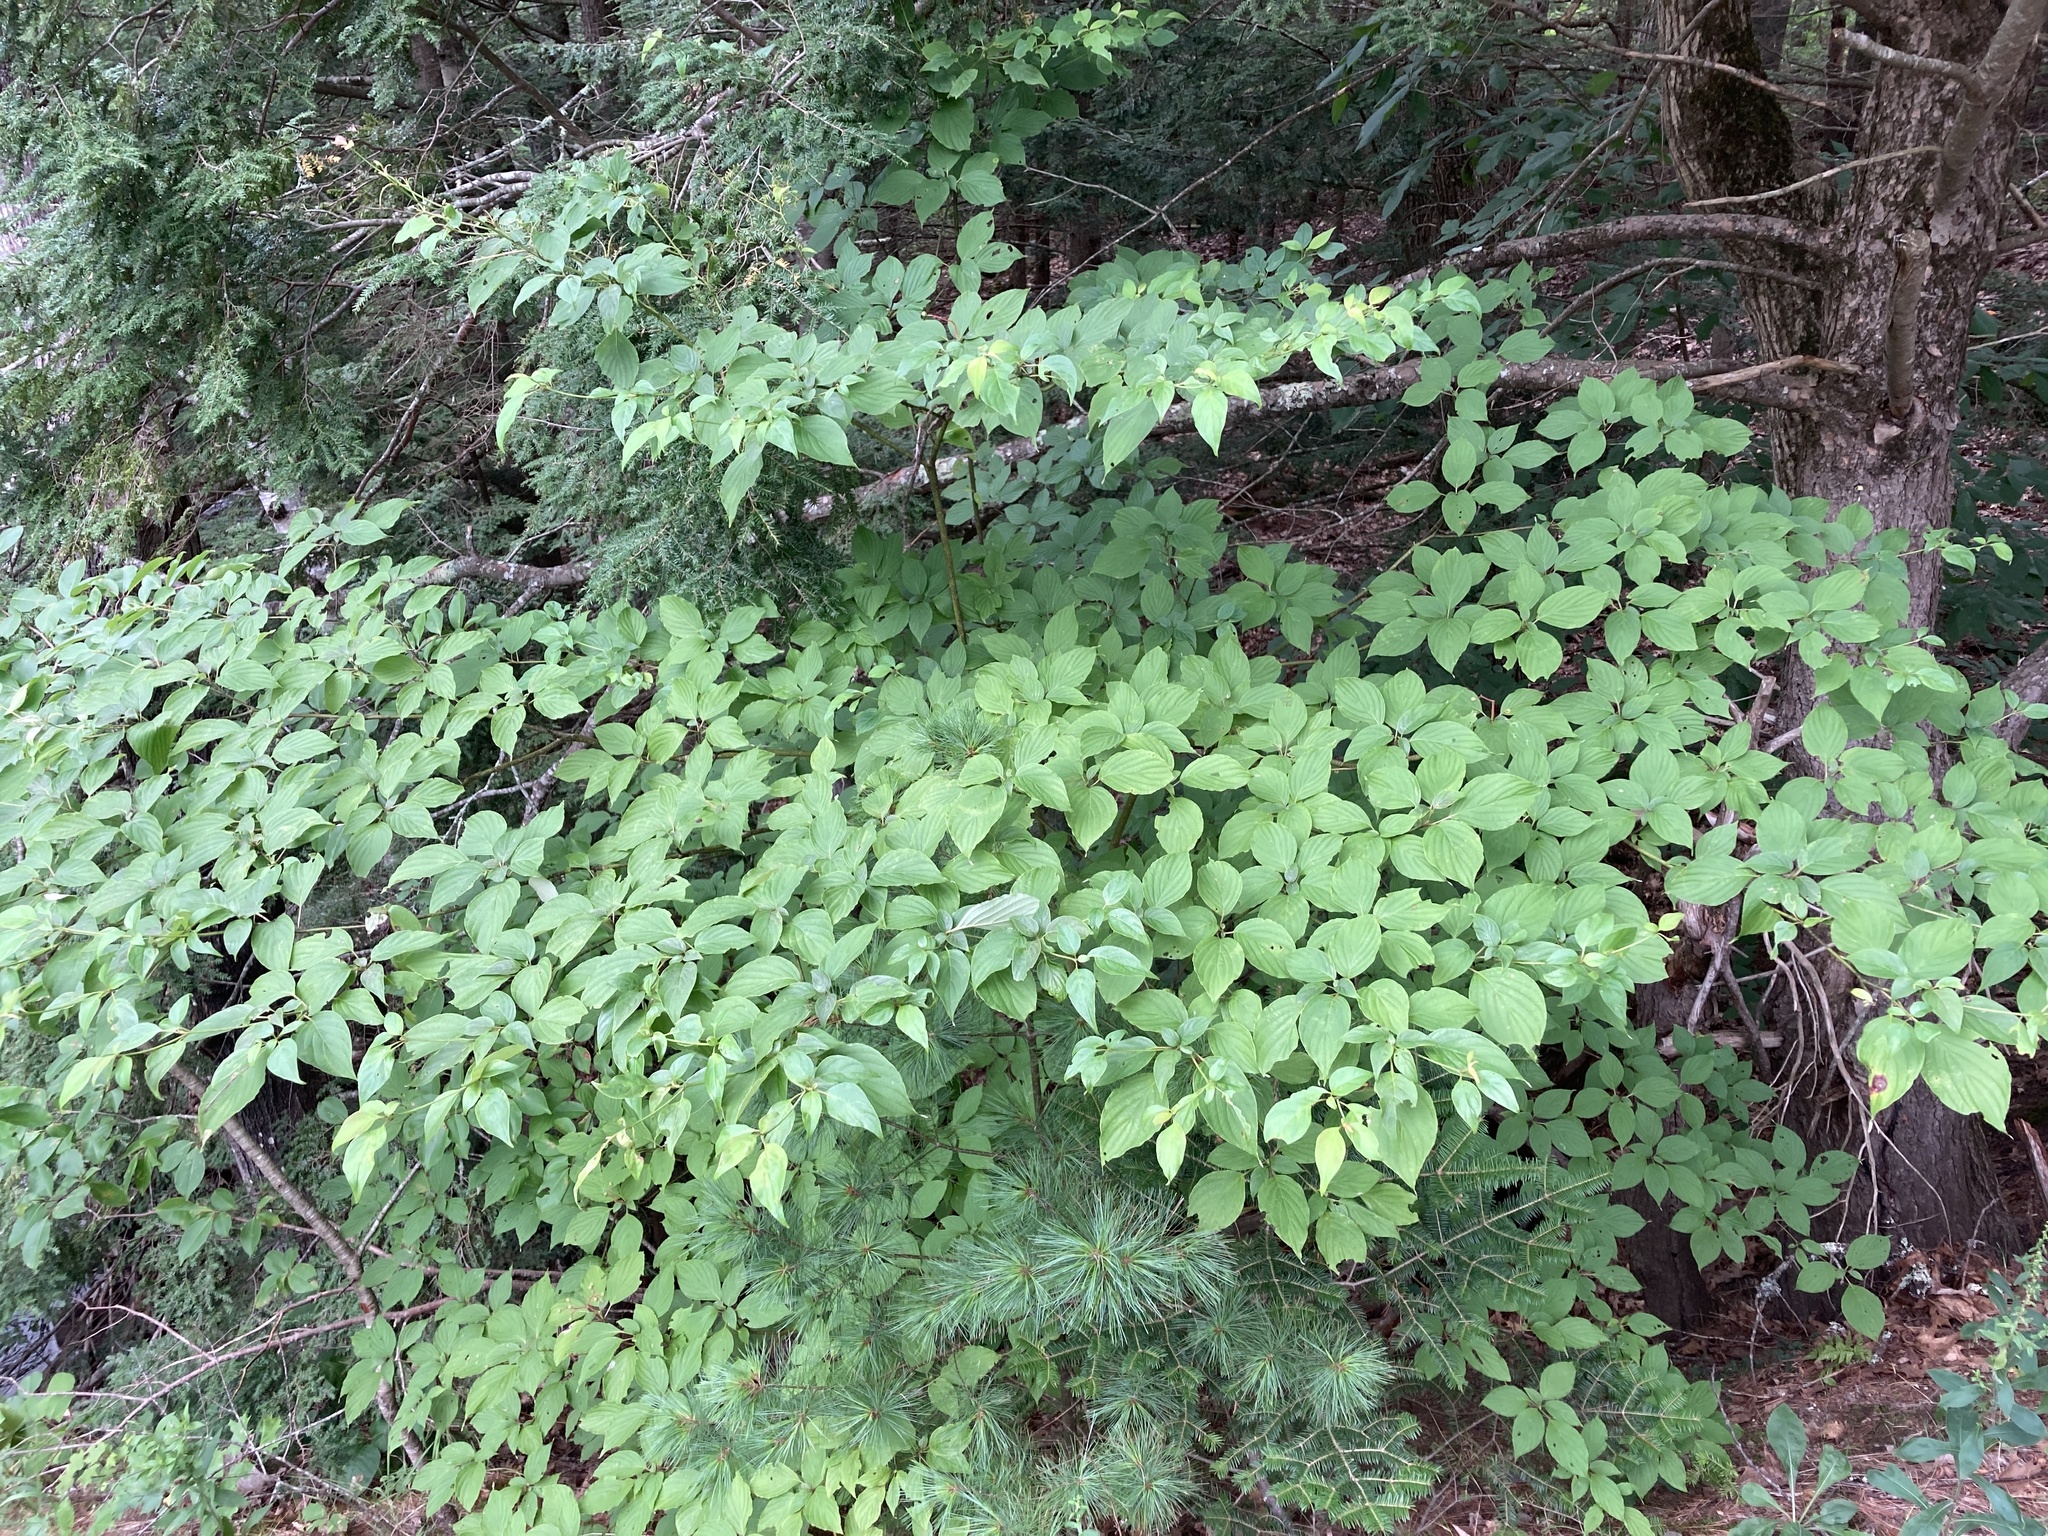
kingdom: Plantae
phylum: Tracheophyta
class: Magnoliopsida
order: Cornales
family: Cornaceae
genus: Cornus
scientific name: Cornus alternifolia
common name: Pagoda dogwood
